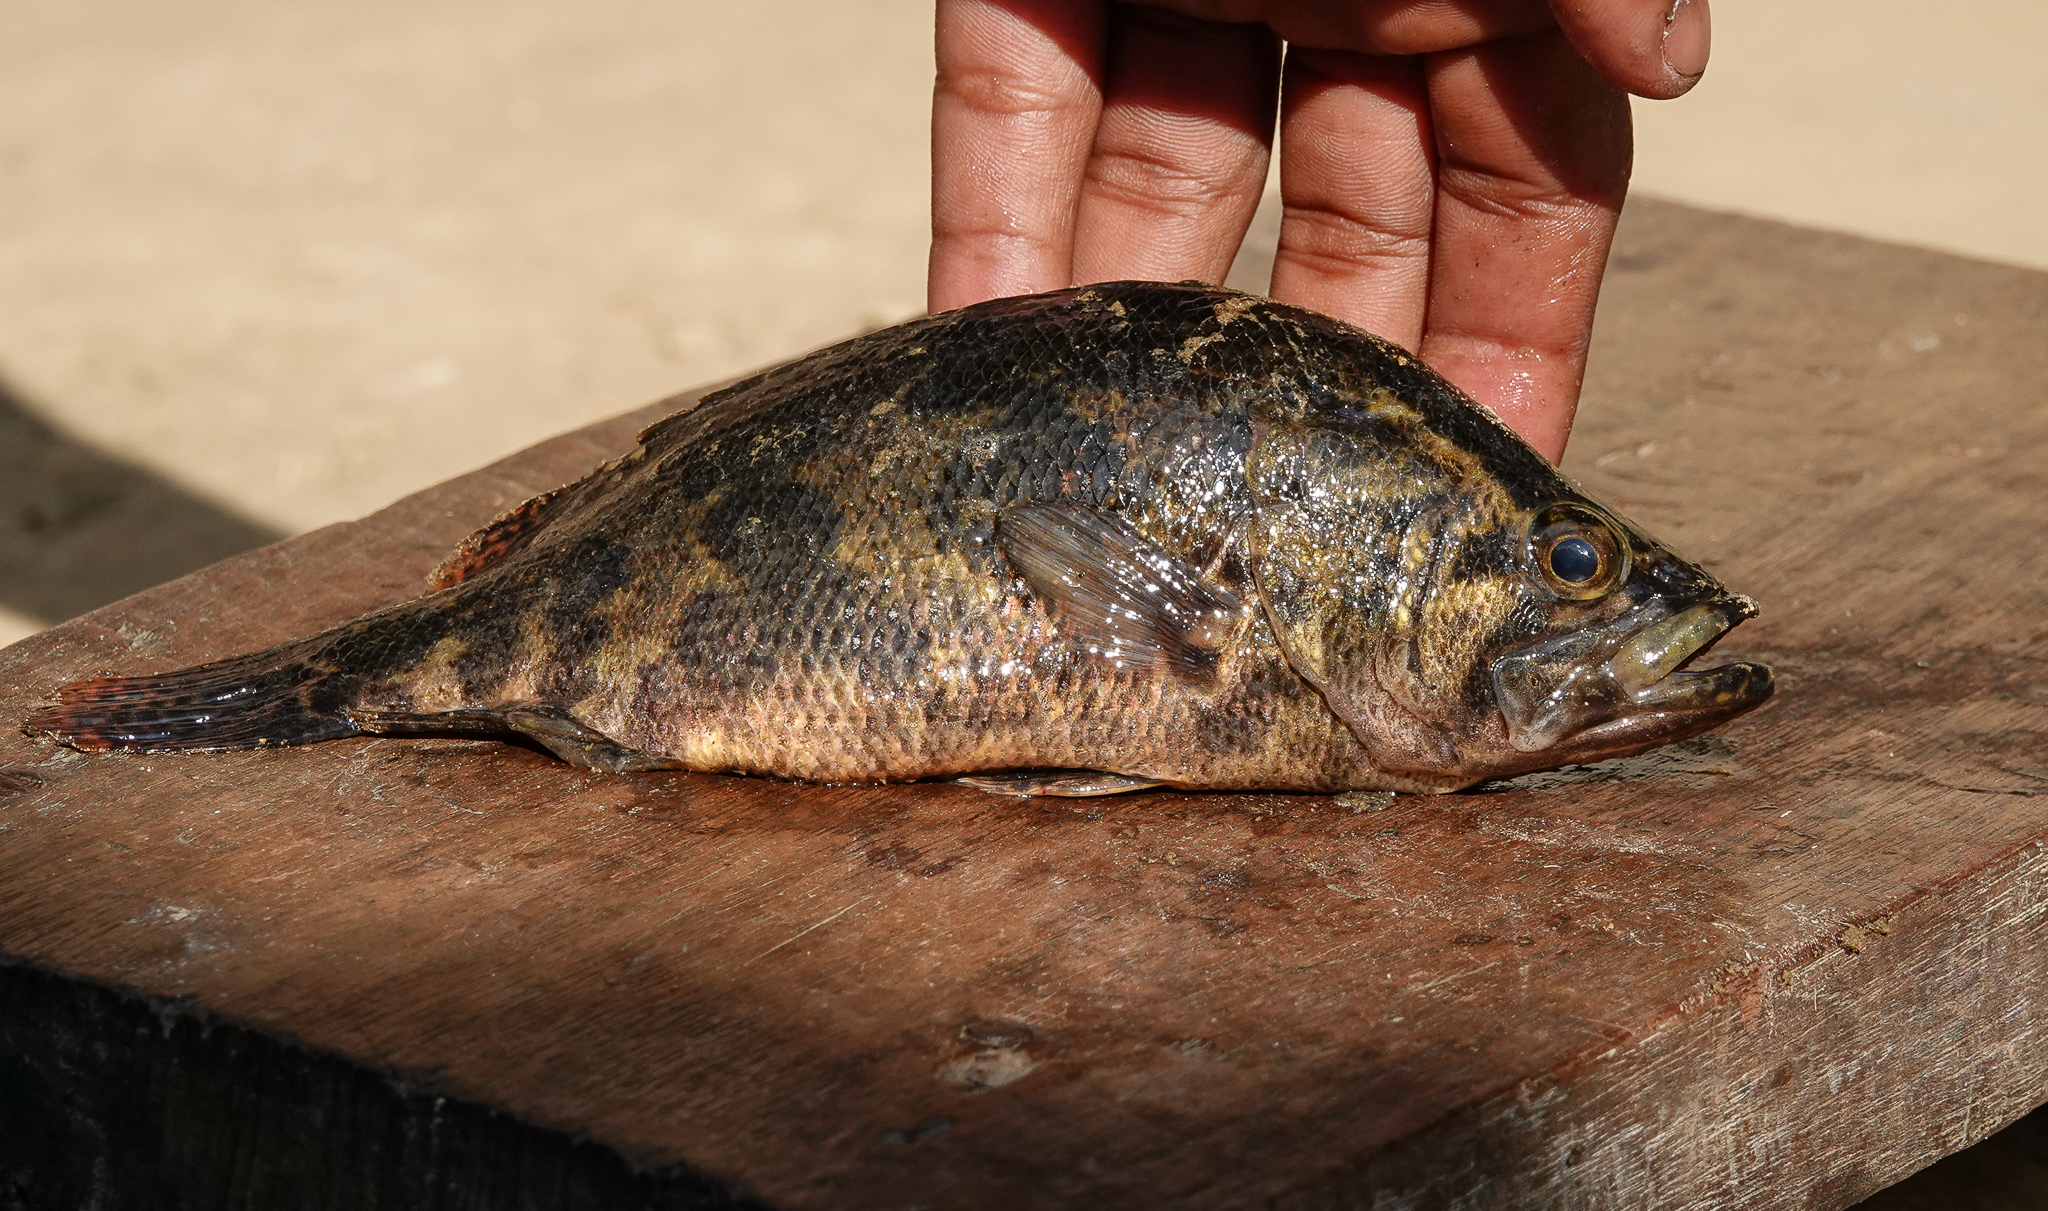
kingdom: Animalia
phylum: Chordata
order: Perciformes
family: Nandidae
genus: Nandus
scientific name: Nandus nandus
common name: Gangetic leaffish
